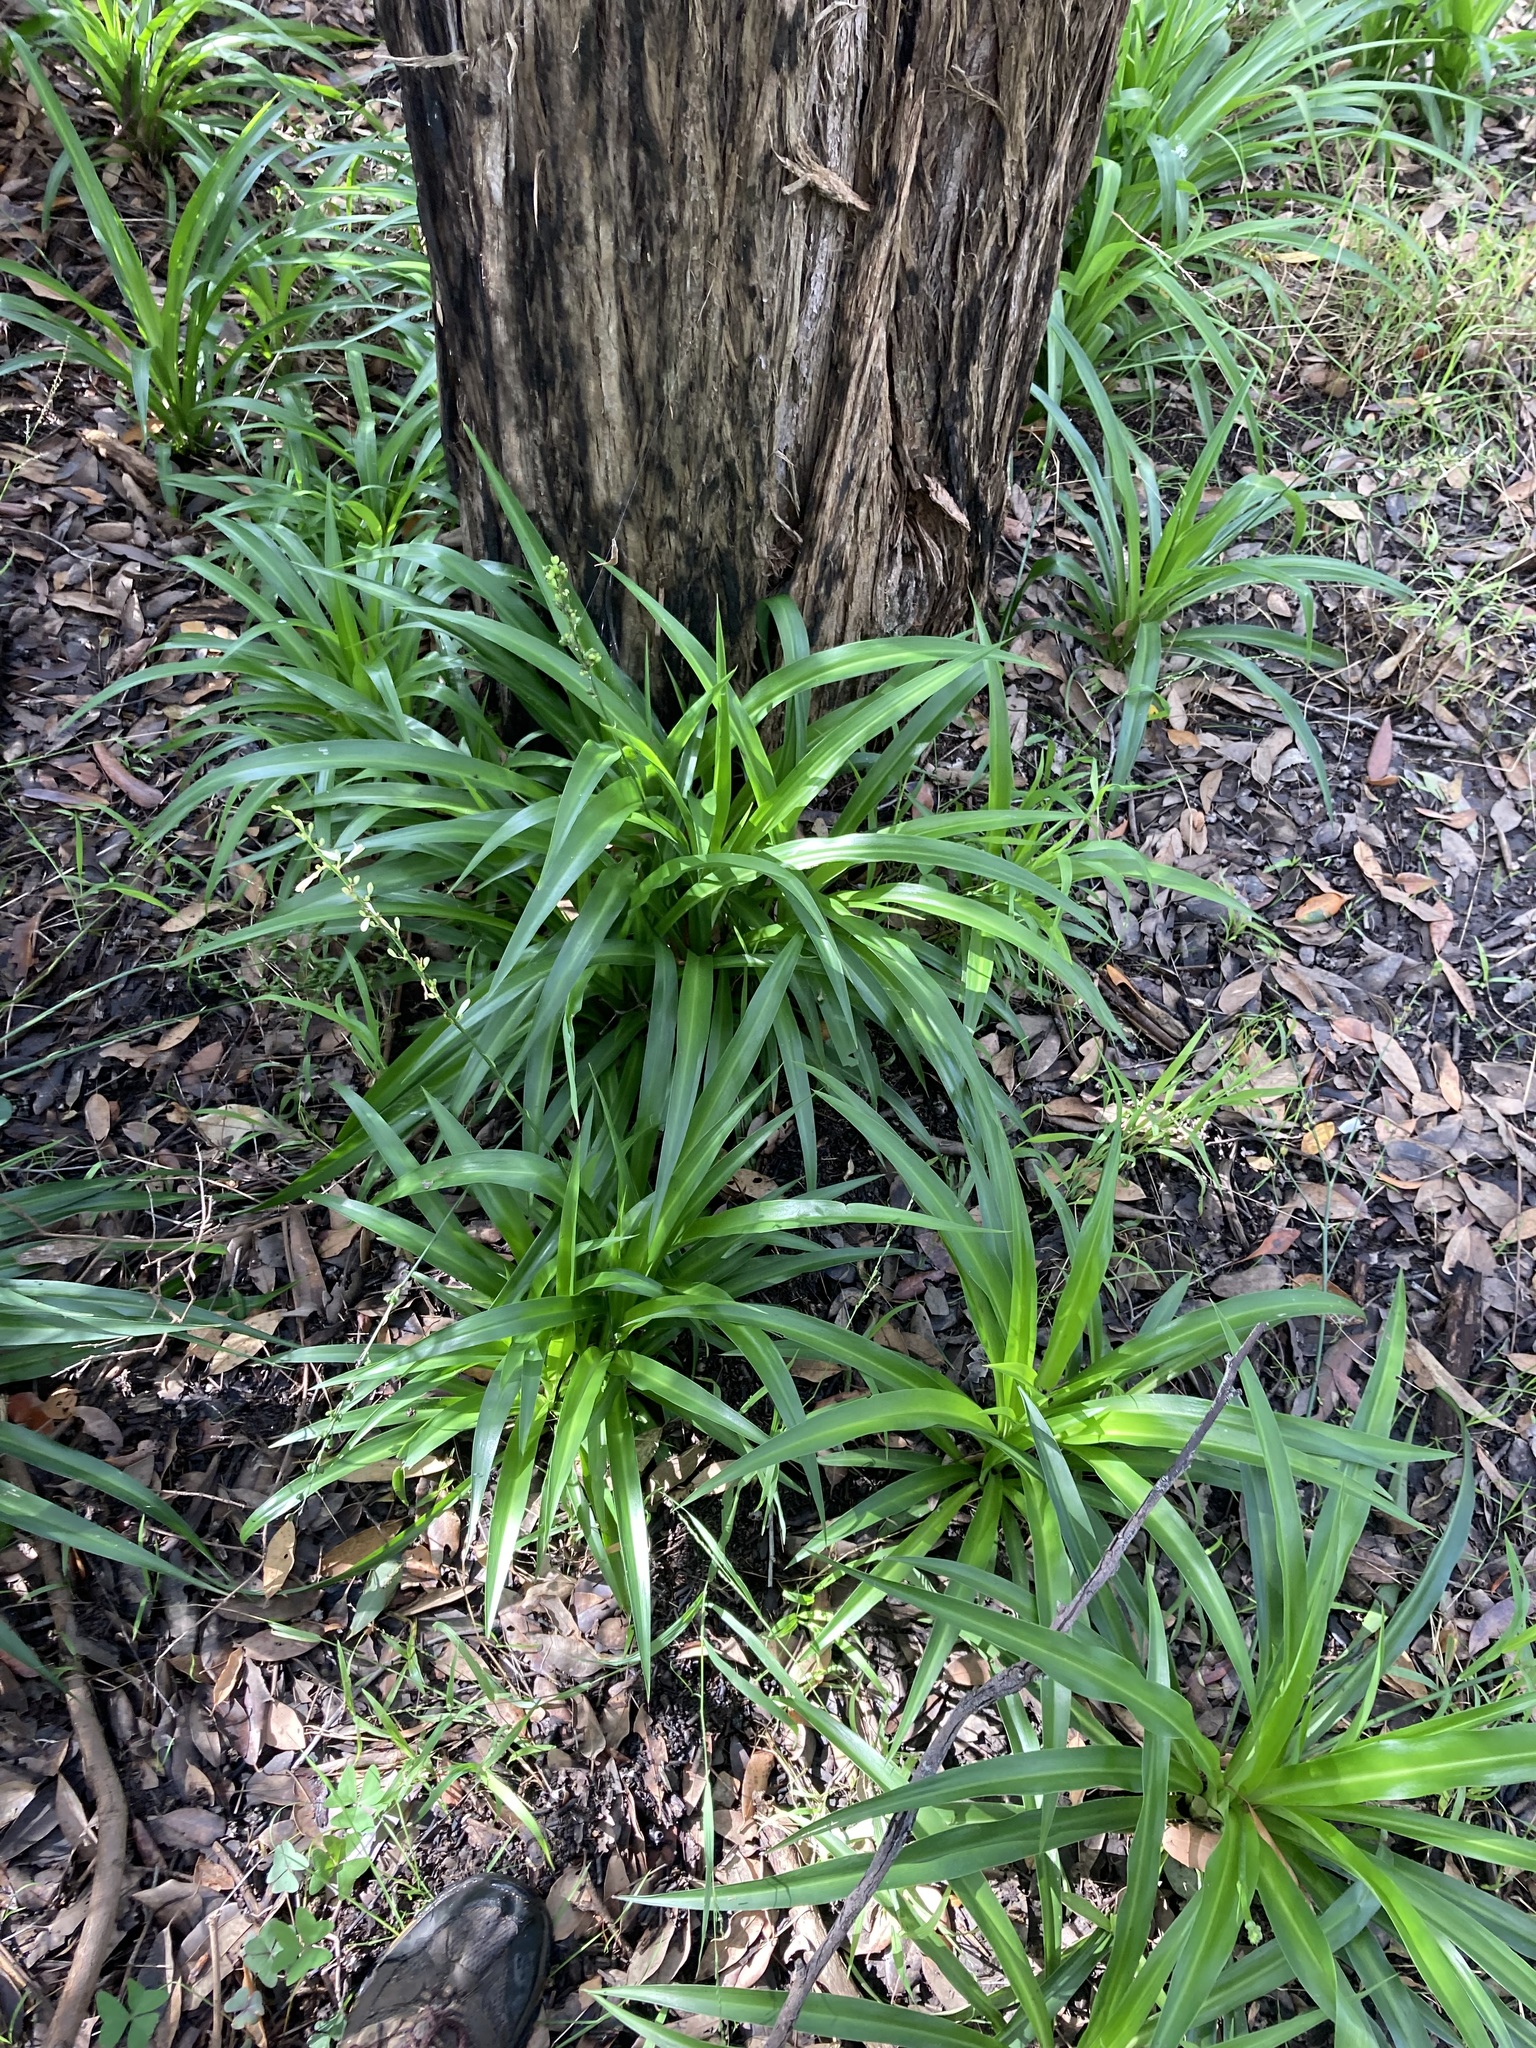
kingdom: Plantae
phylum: Tracheophyta
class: Liliopsida
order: Asparagales
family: Asparagaceae
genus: Chlorophytum
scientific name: Chlorophytum comosum
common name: Spider plant
